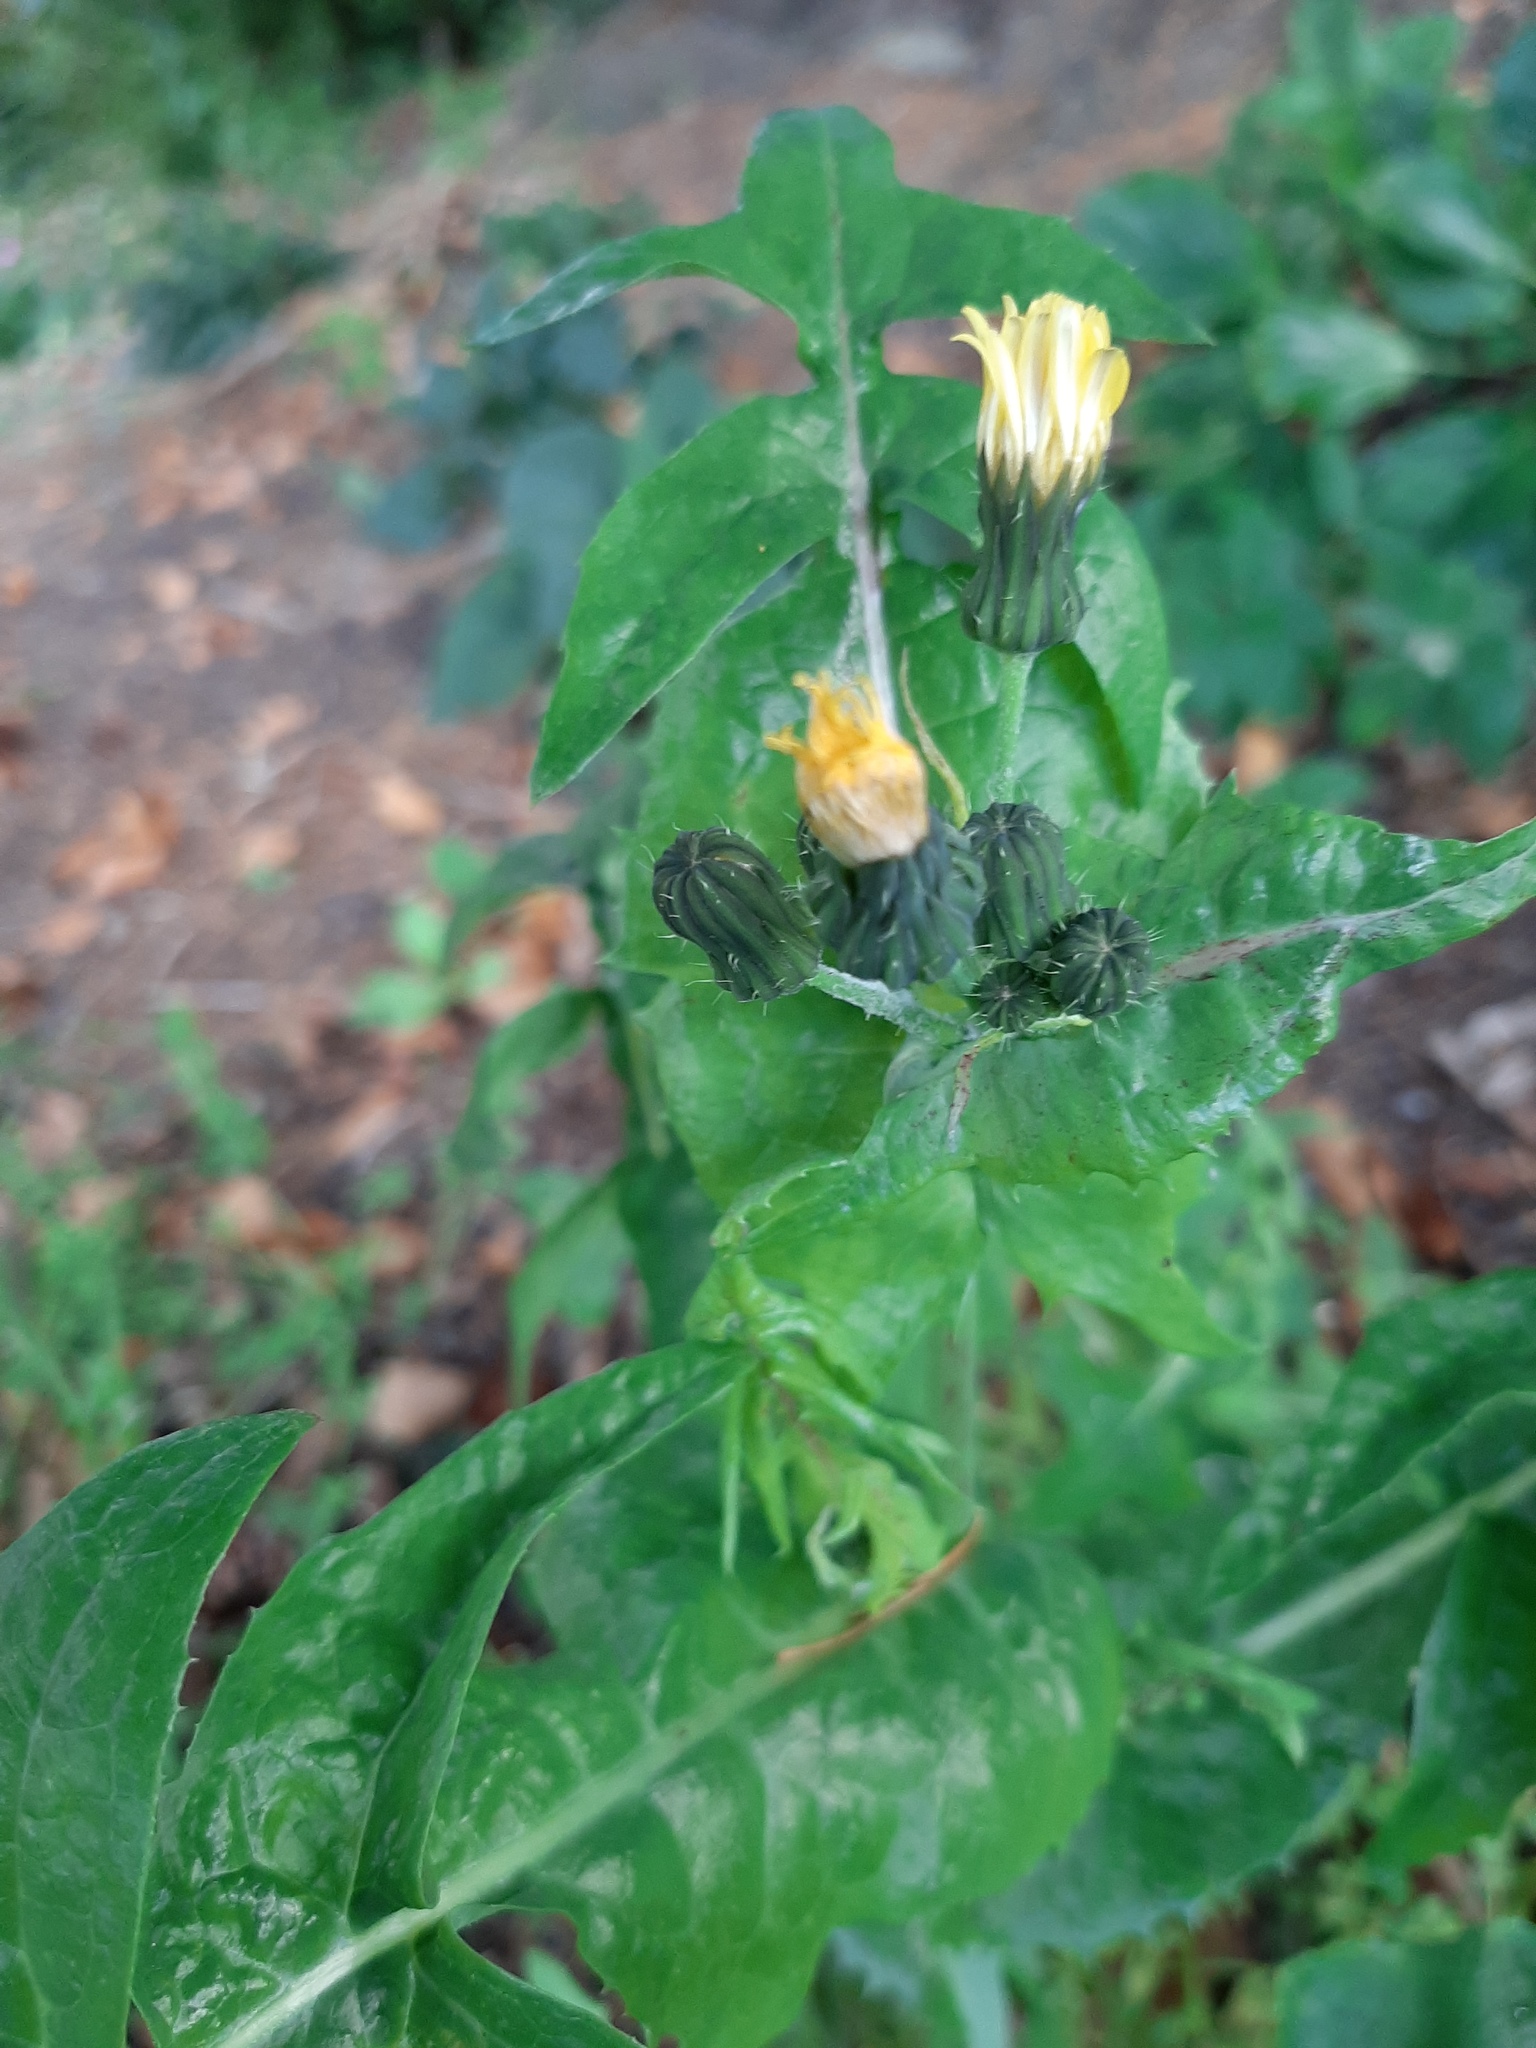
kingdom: Plantae
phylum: Tracheophyta
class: Magnoliopsida
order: Asterales
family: Asteraceae
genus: Sonchus
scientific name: Sonchus oleraceus
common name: Common sowthistle
